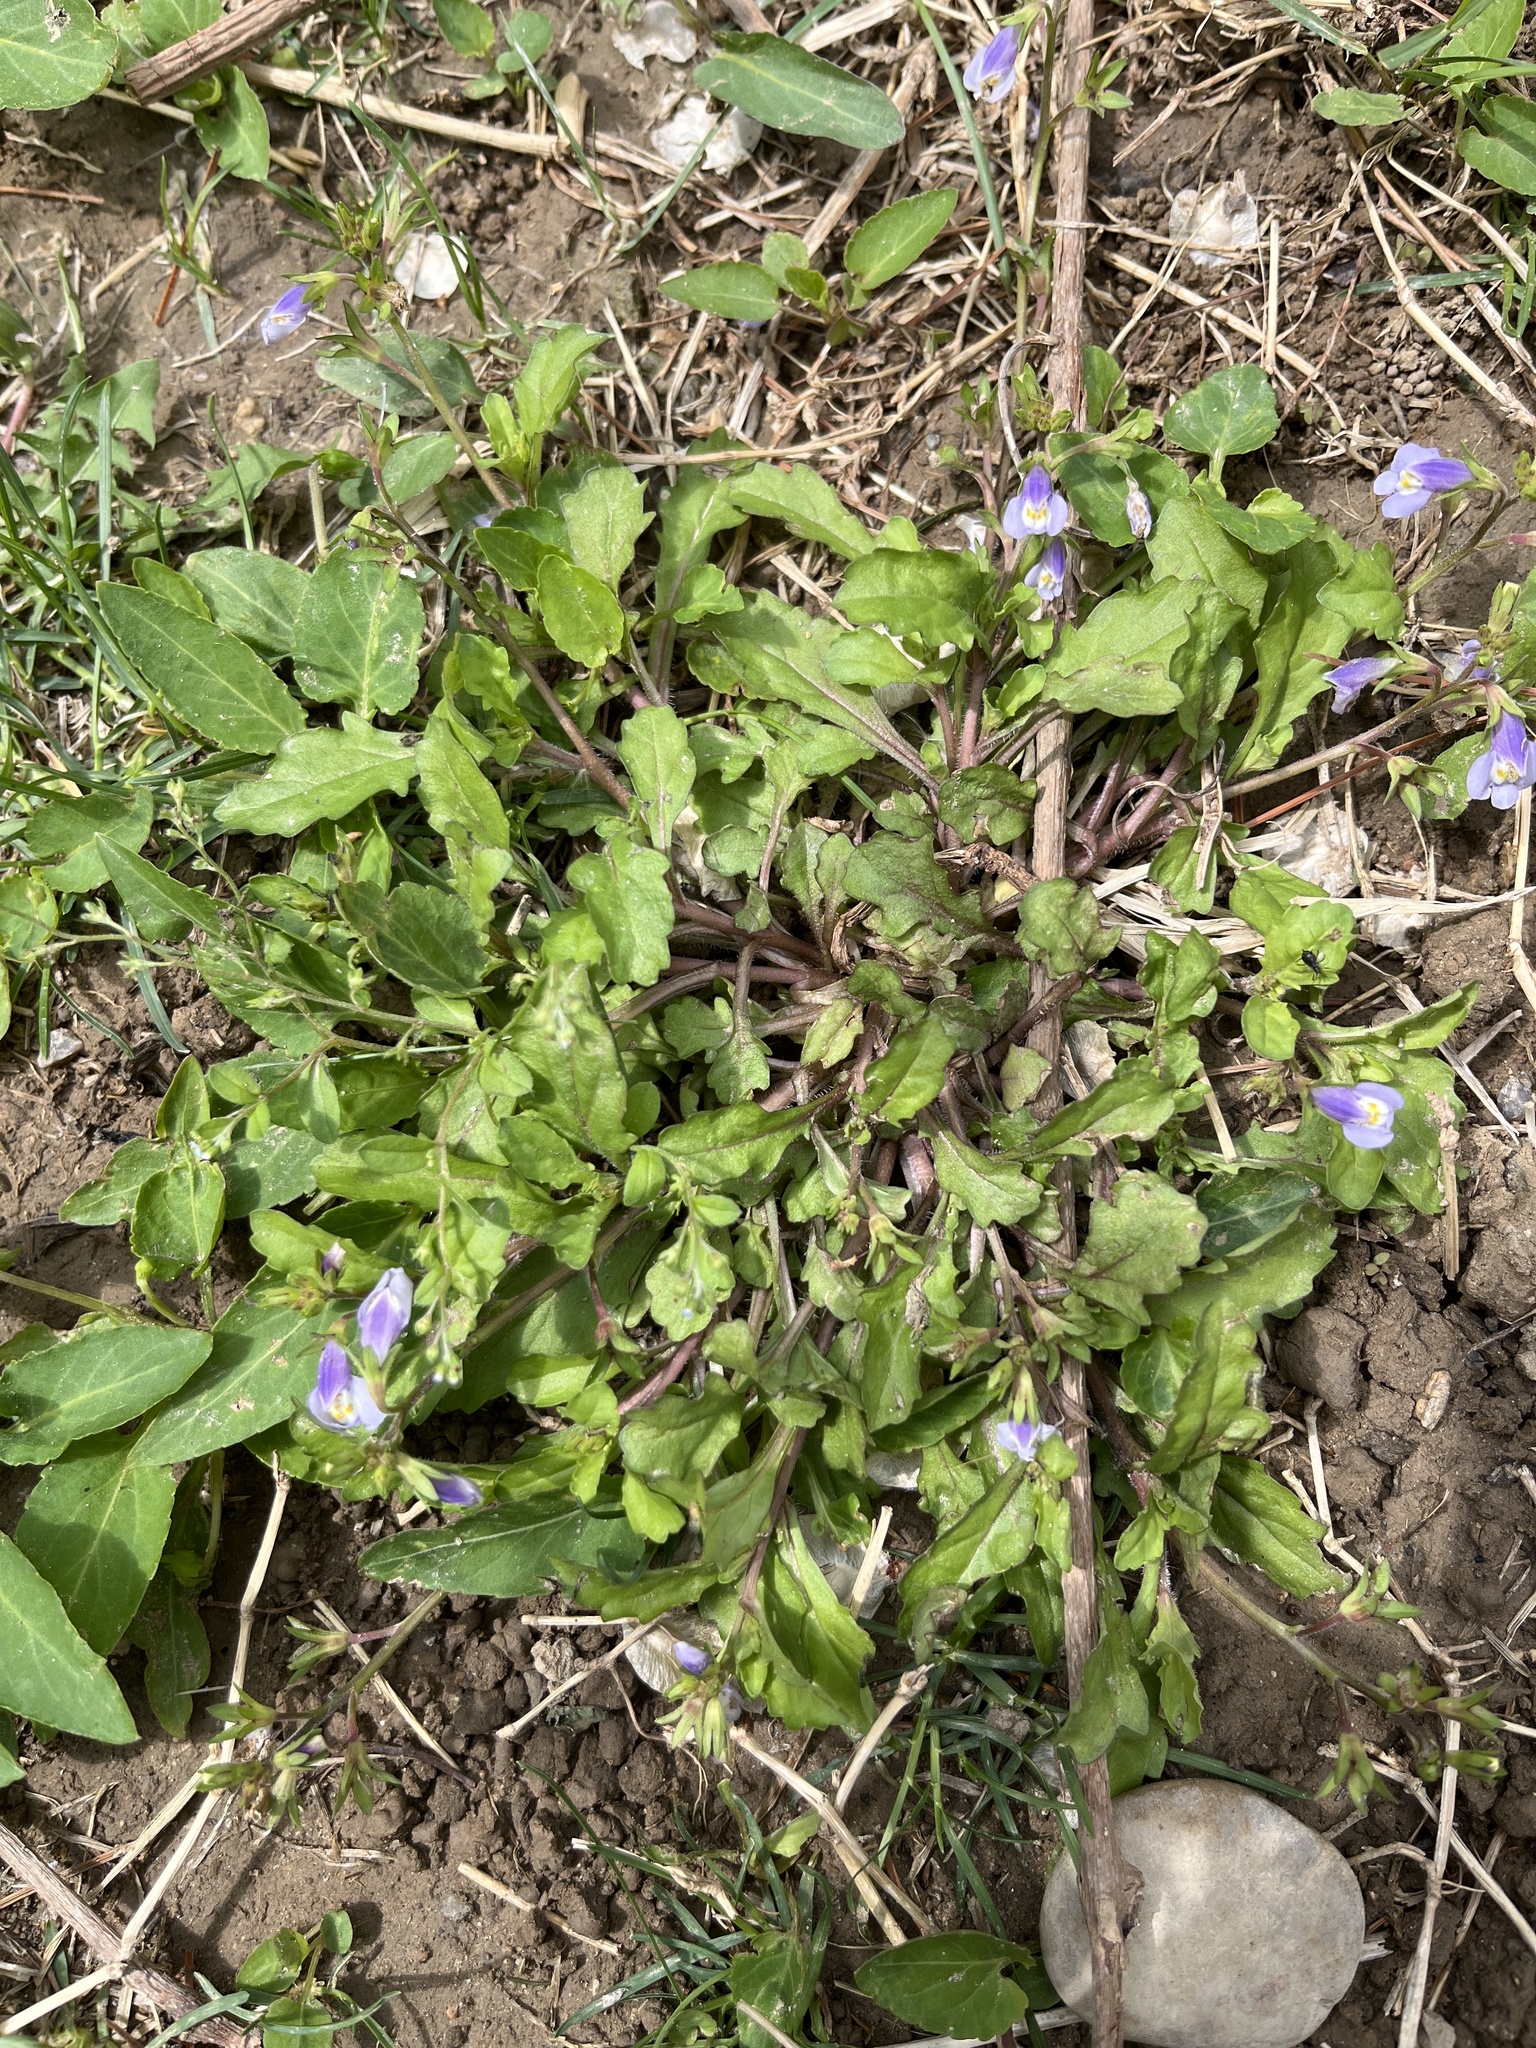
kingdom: Plantae
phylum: Tracheophyta
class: Magnoliopsida
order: Lamiales
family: Mazaceae
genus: Mazus
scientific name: Mazus pumilus
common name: Japanese mazus
